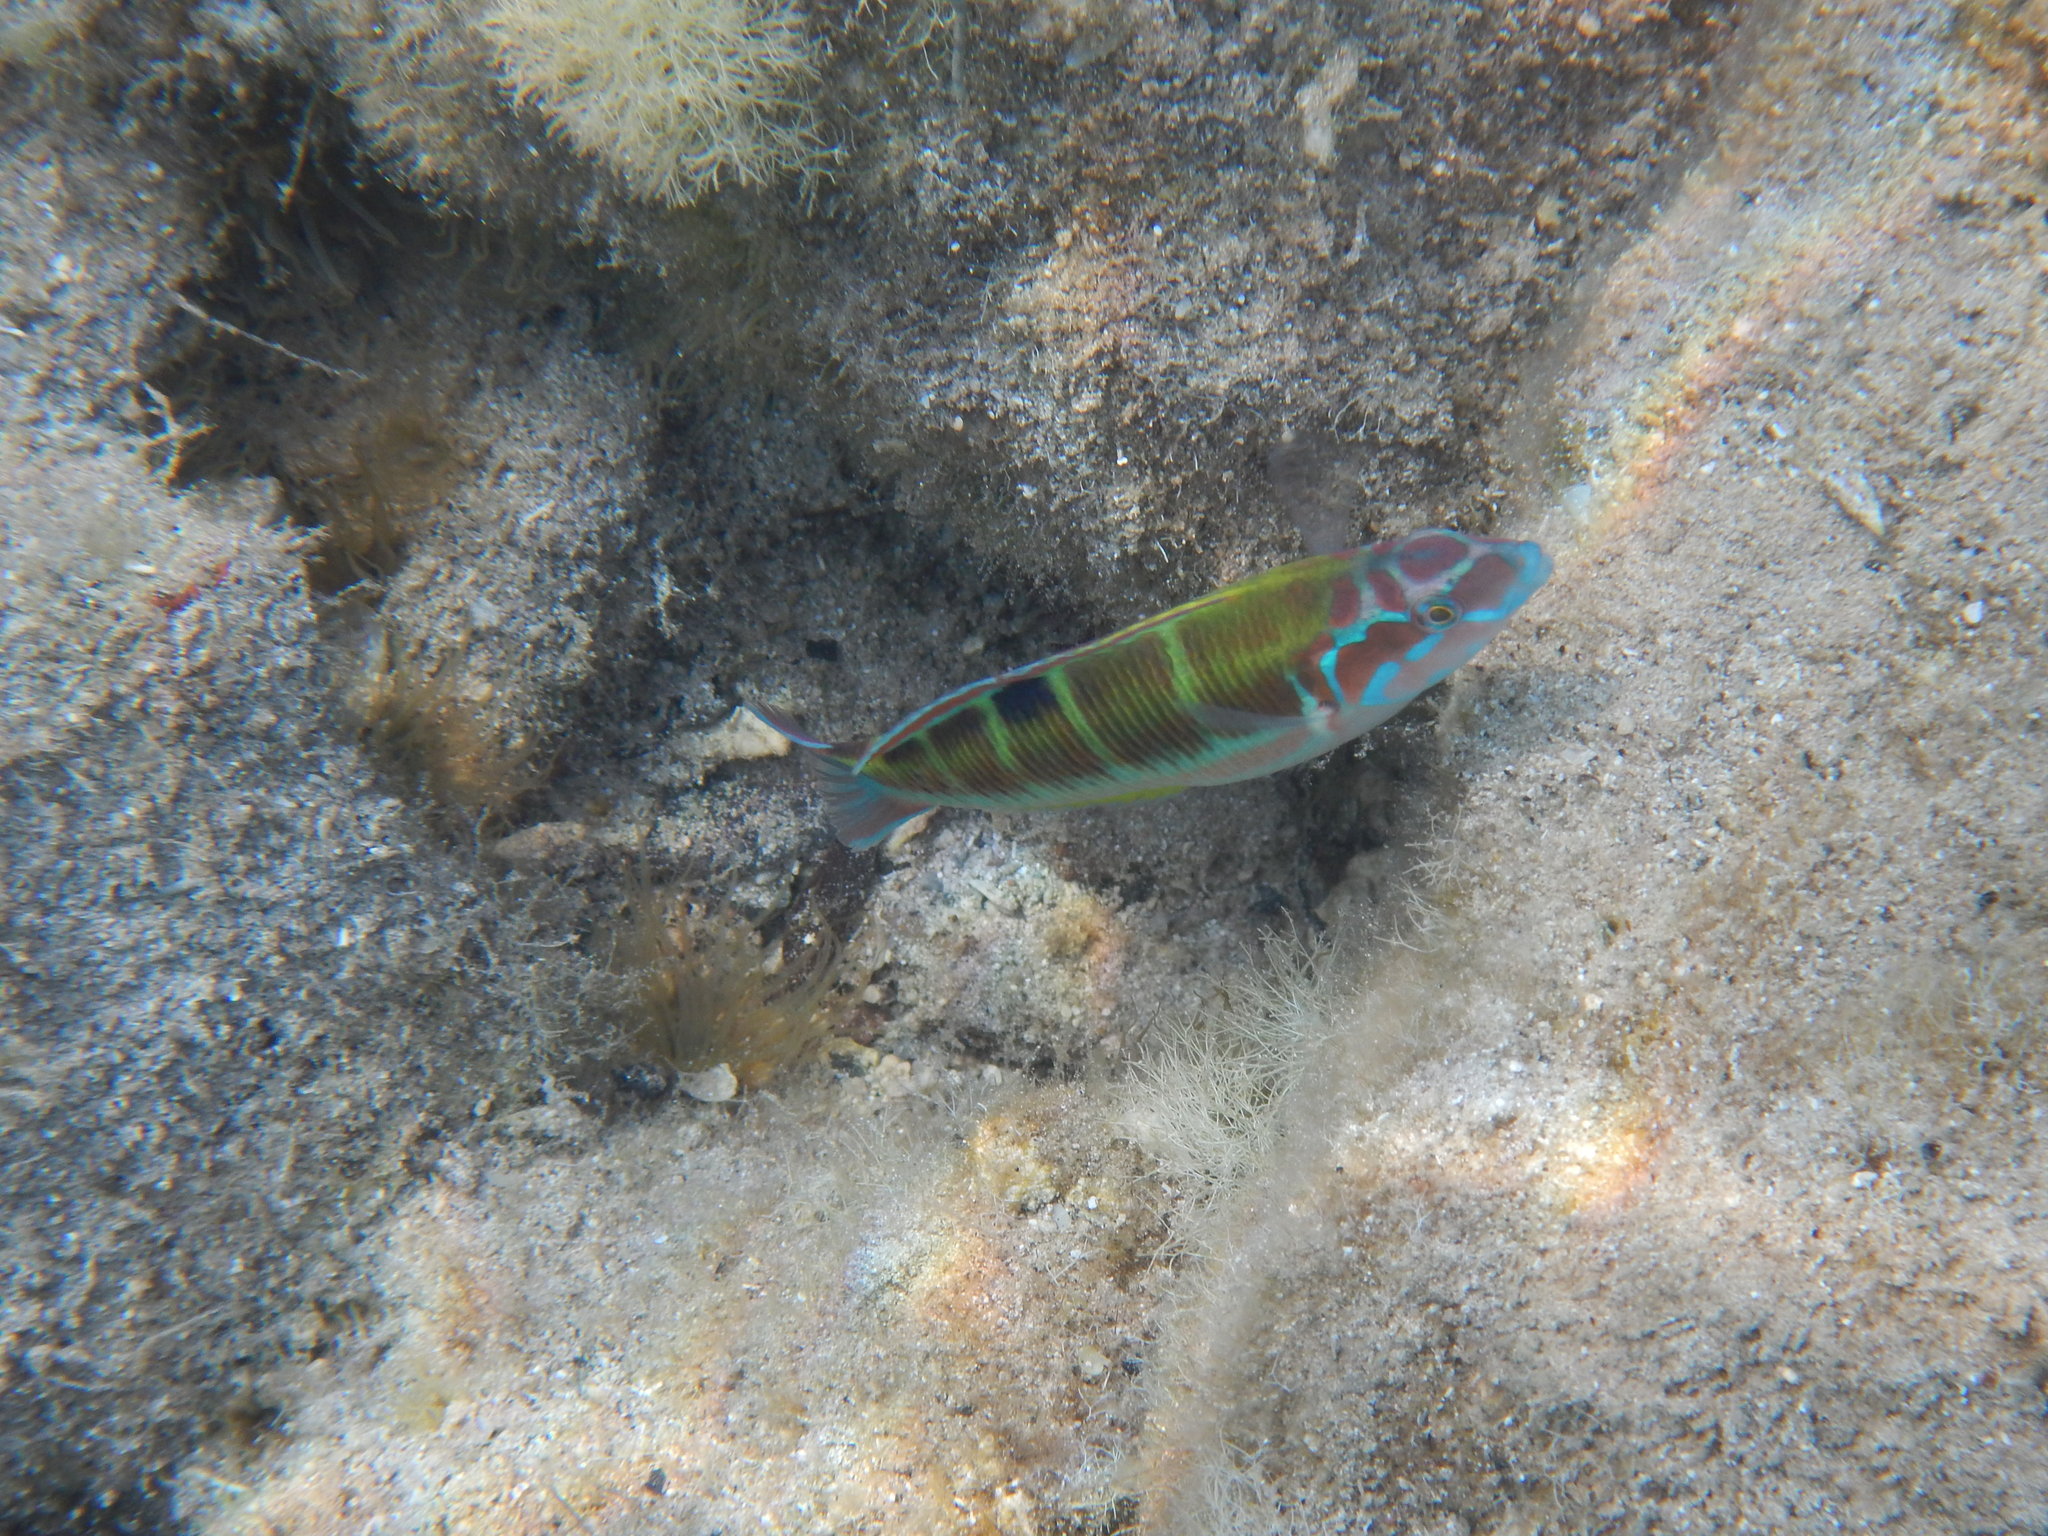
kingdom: Animalia
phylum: Chordata
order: Perciformes
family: Labridae
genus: Thalassoma
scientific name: Thalassoma pavo
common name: Ornate wrasse
